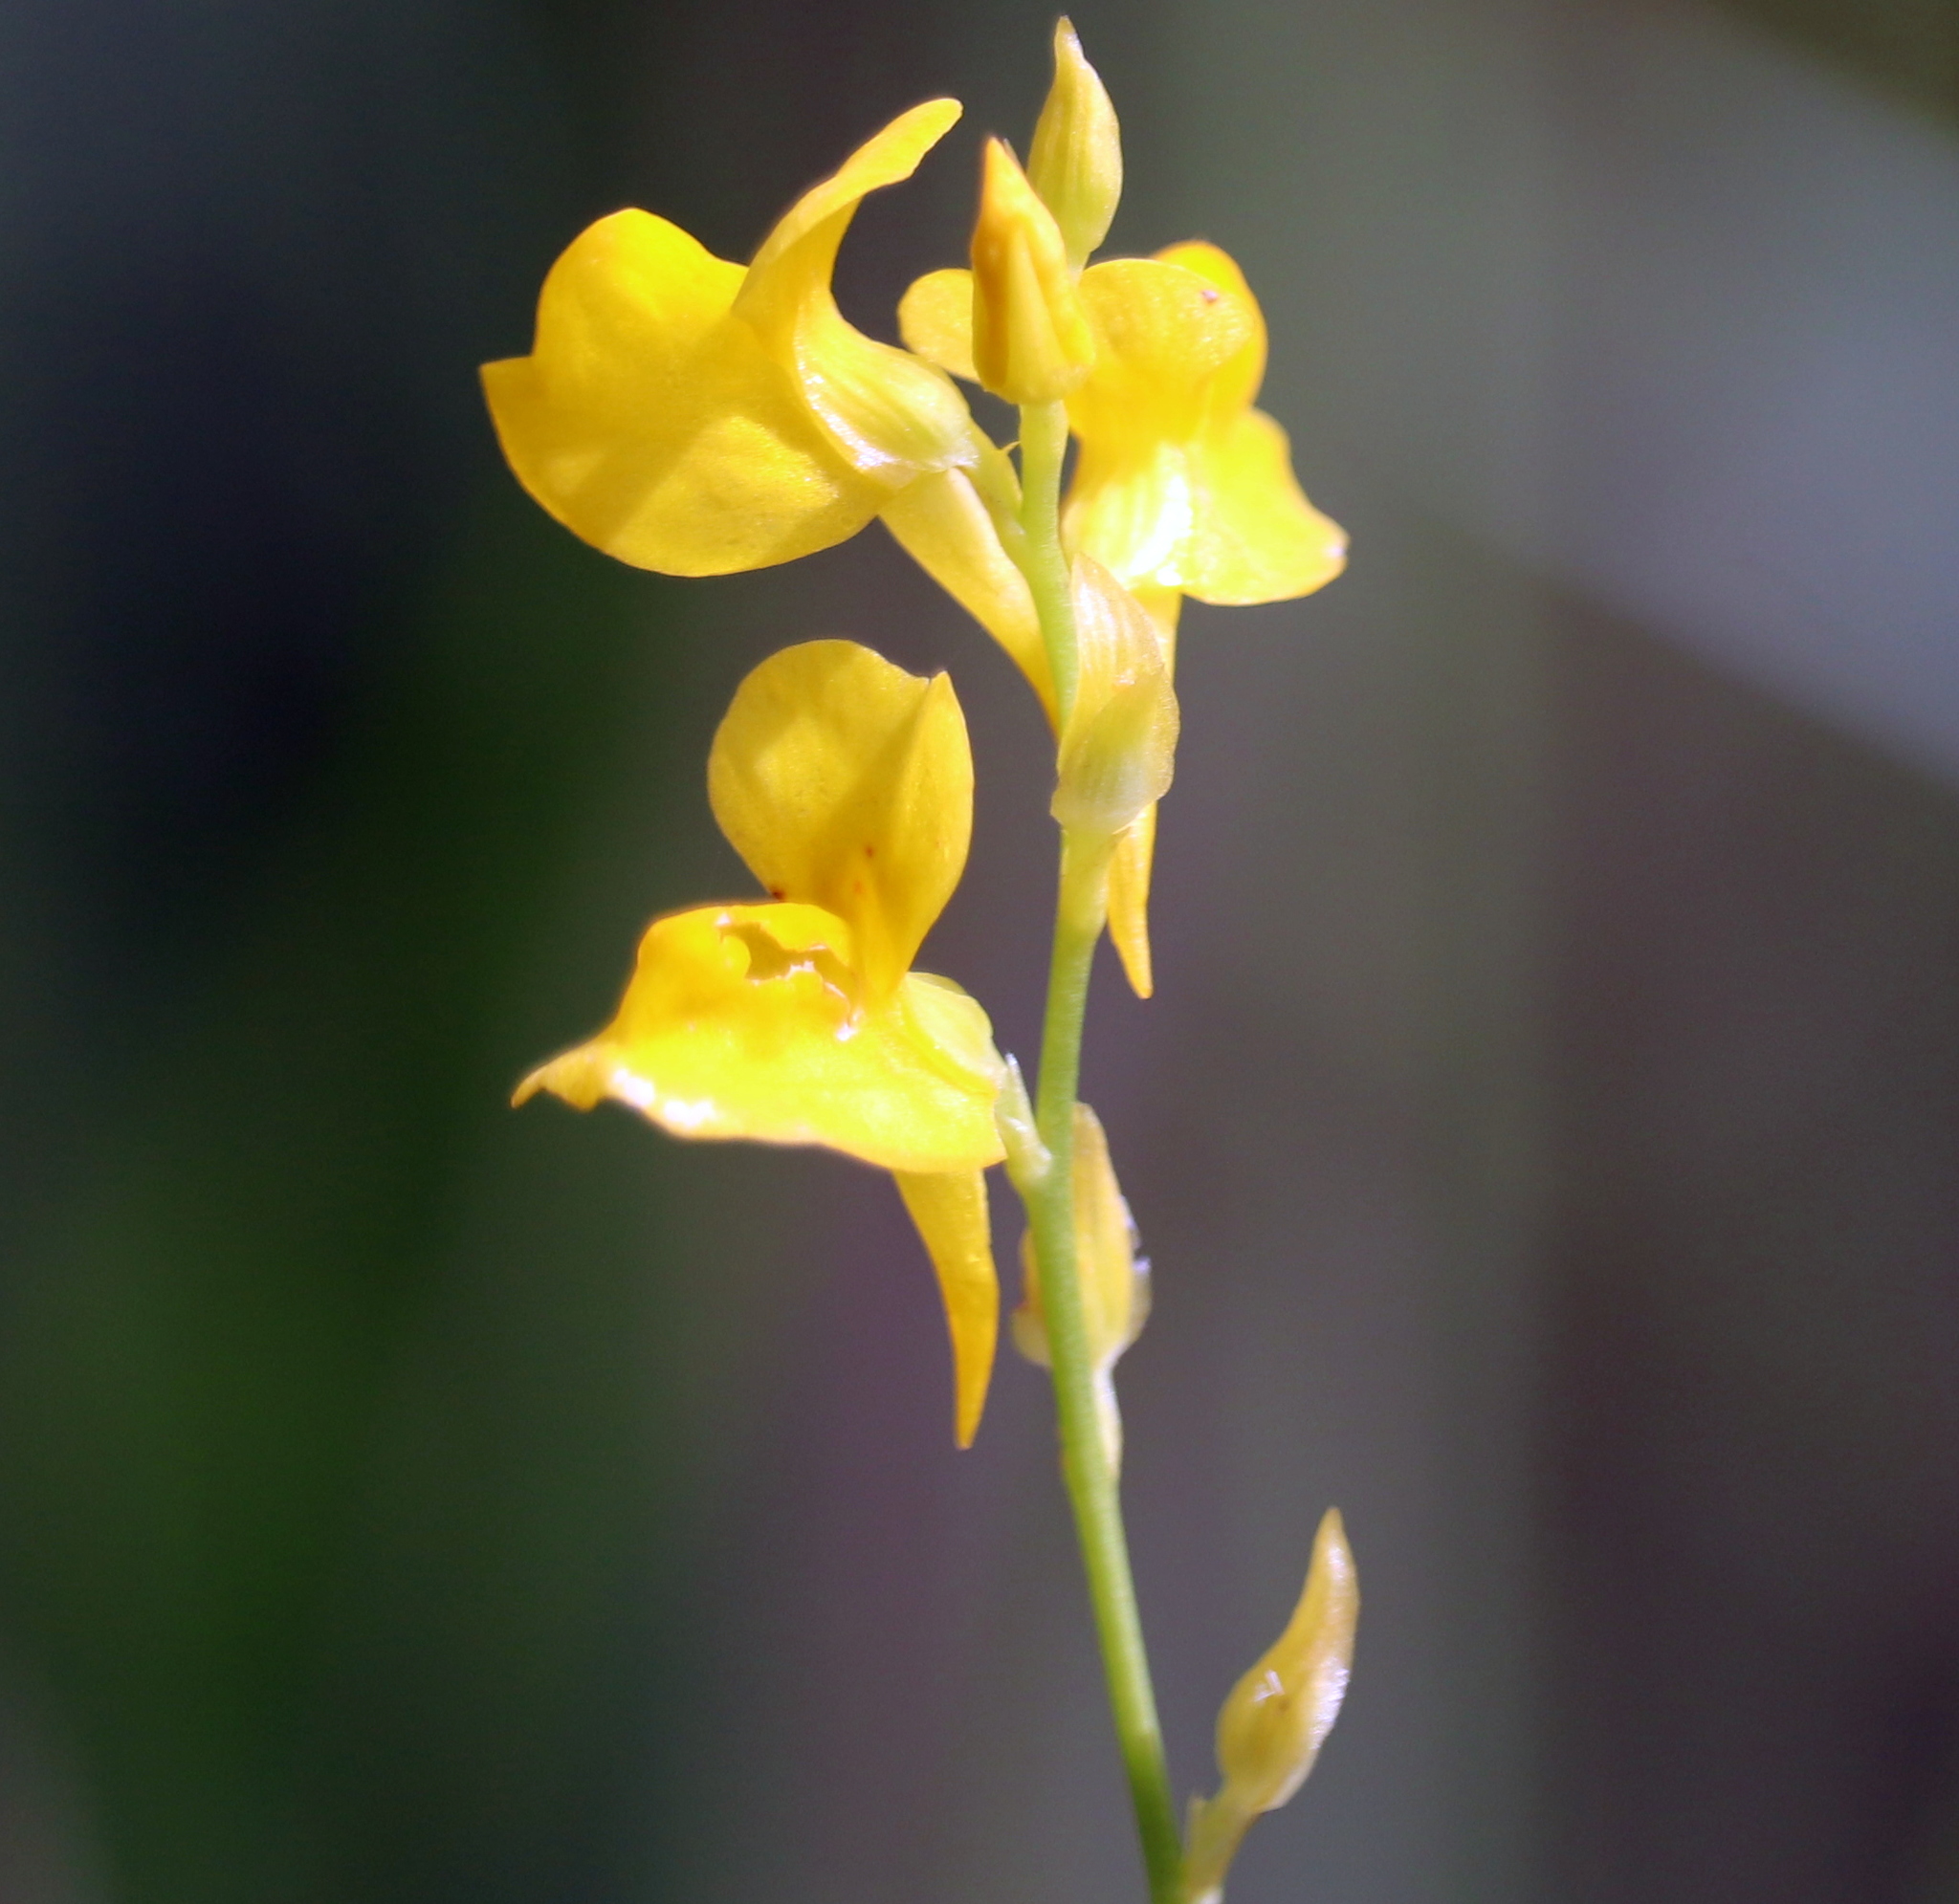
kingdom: Plantae
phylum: Tracheophyta
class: Magnoliopsida
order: Lamiales
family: Lentibulariaceae
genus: Utricularia
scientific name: Utricularia juncea
